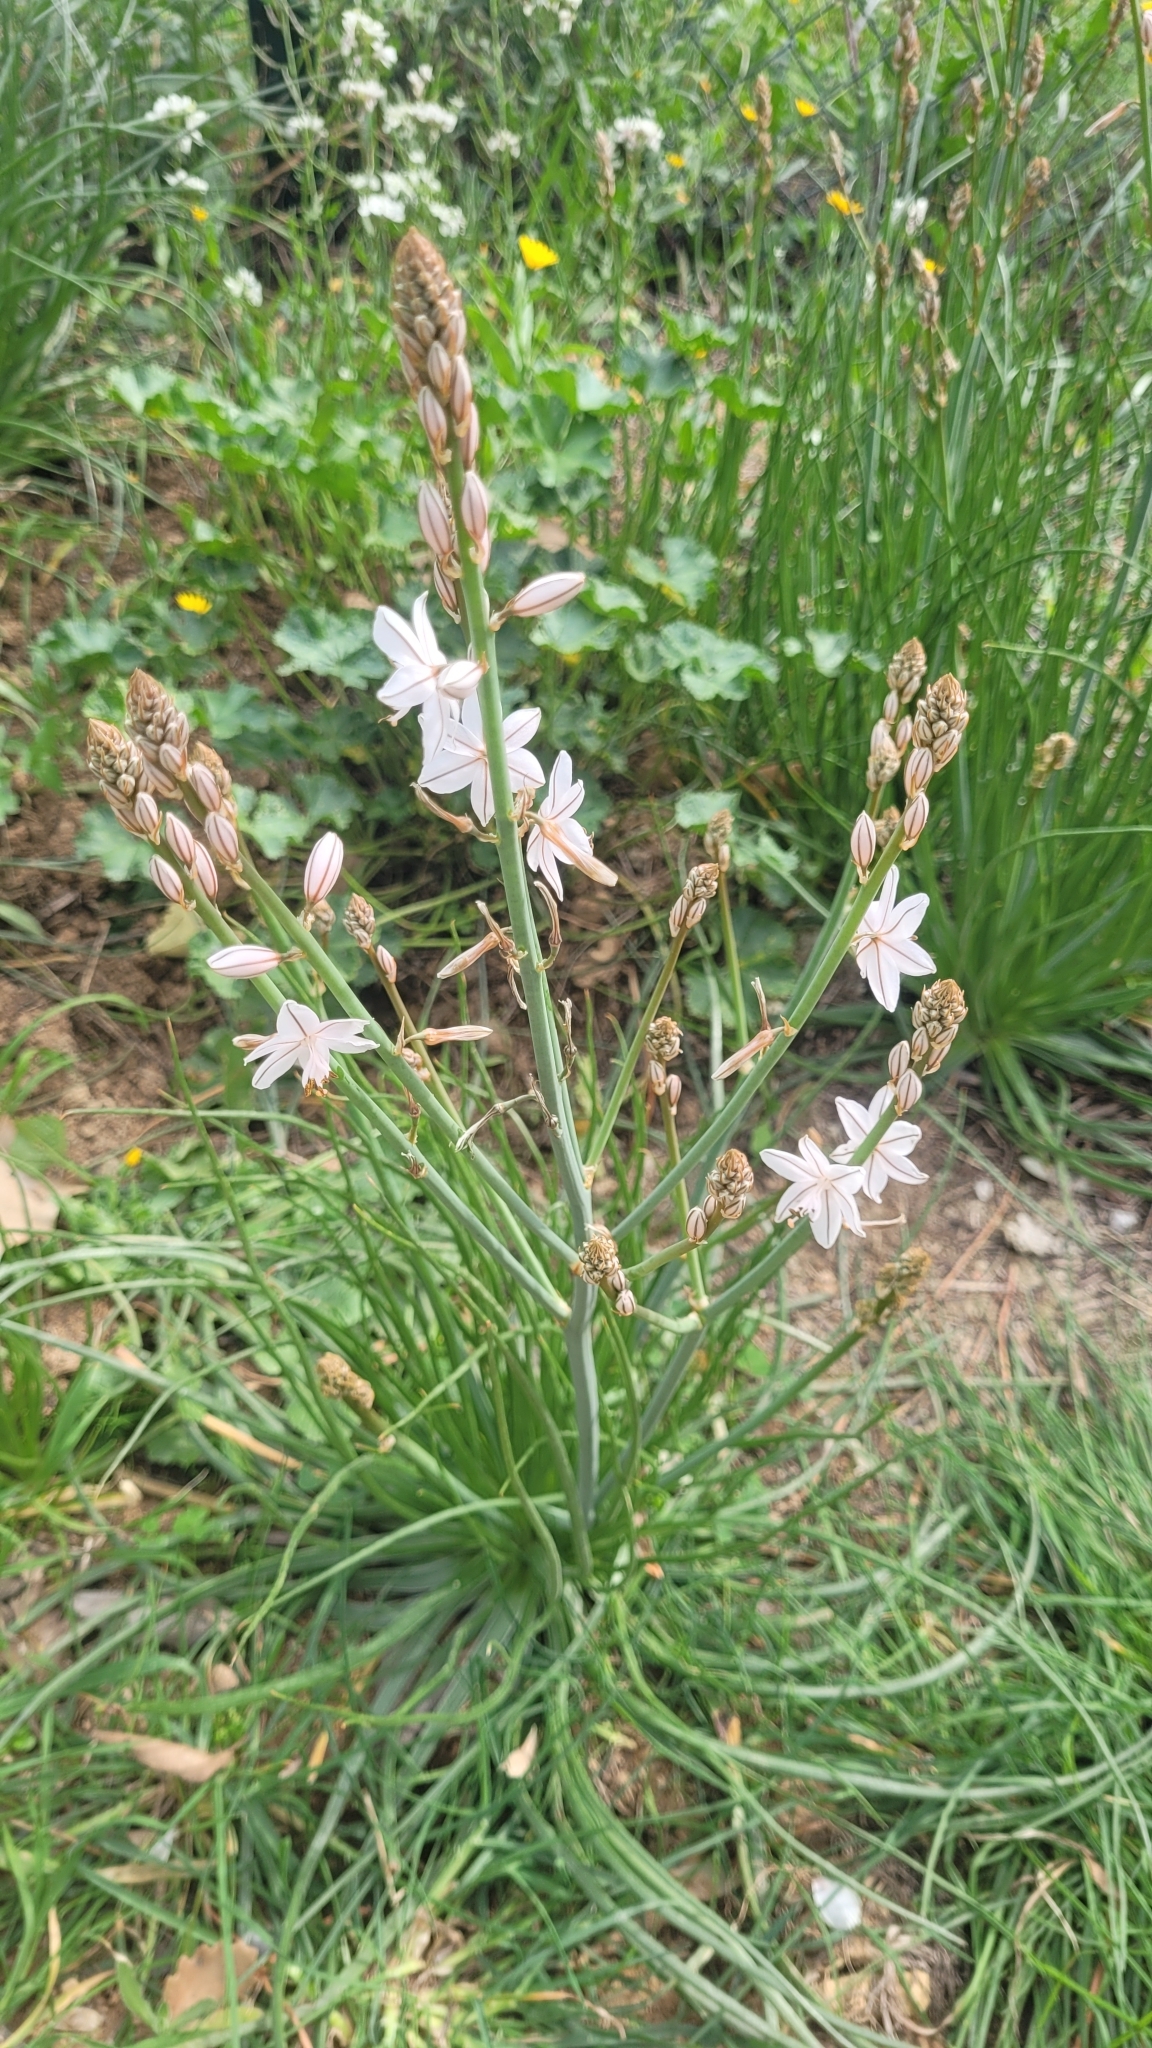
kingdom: Plantae
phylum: Tracheophyta
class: Liliopsida
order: Asparagales
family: Asphodelaceae
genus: Asphodelus
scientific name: Asphodelus fistulosus
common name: Onionweed
